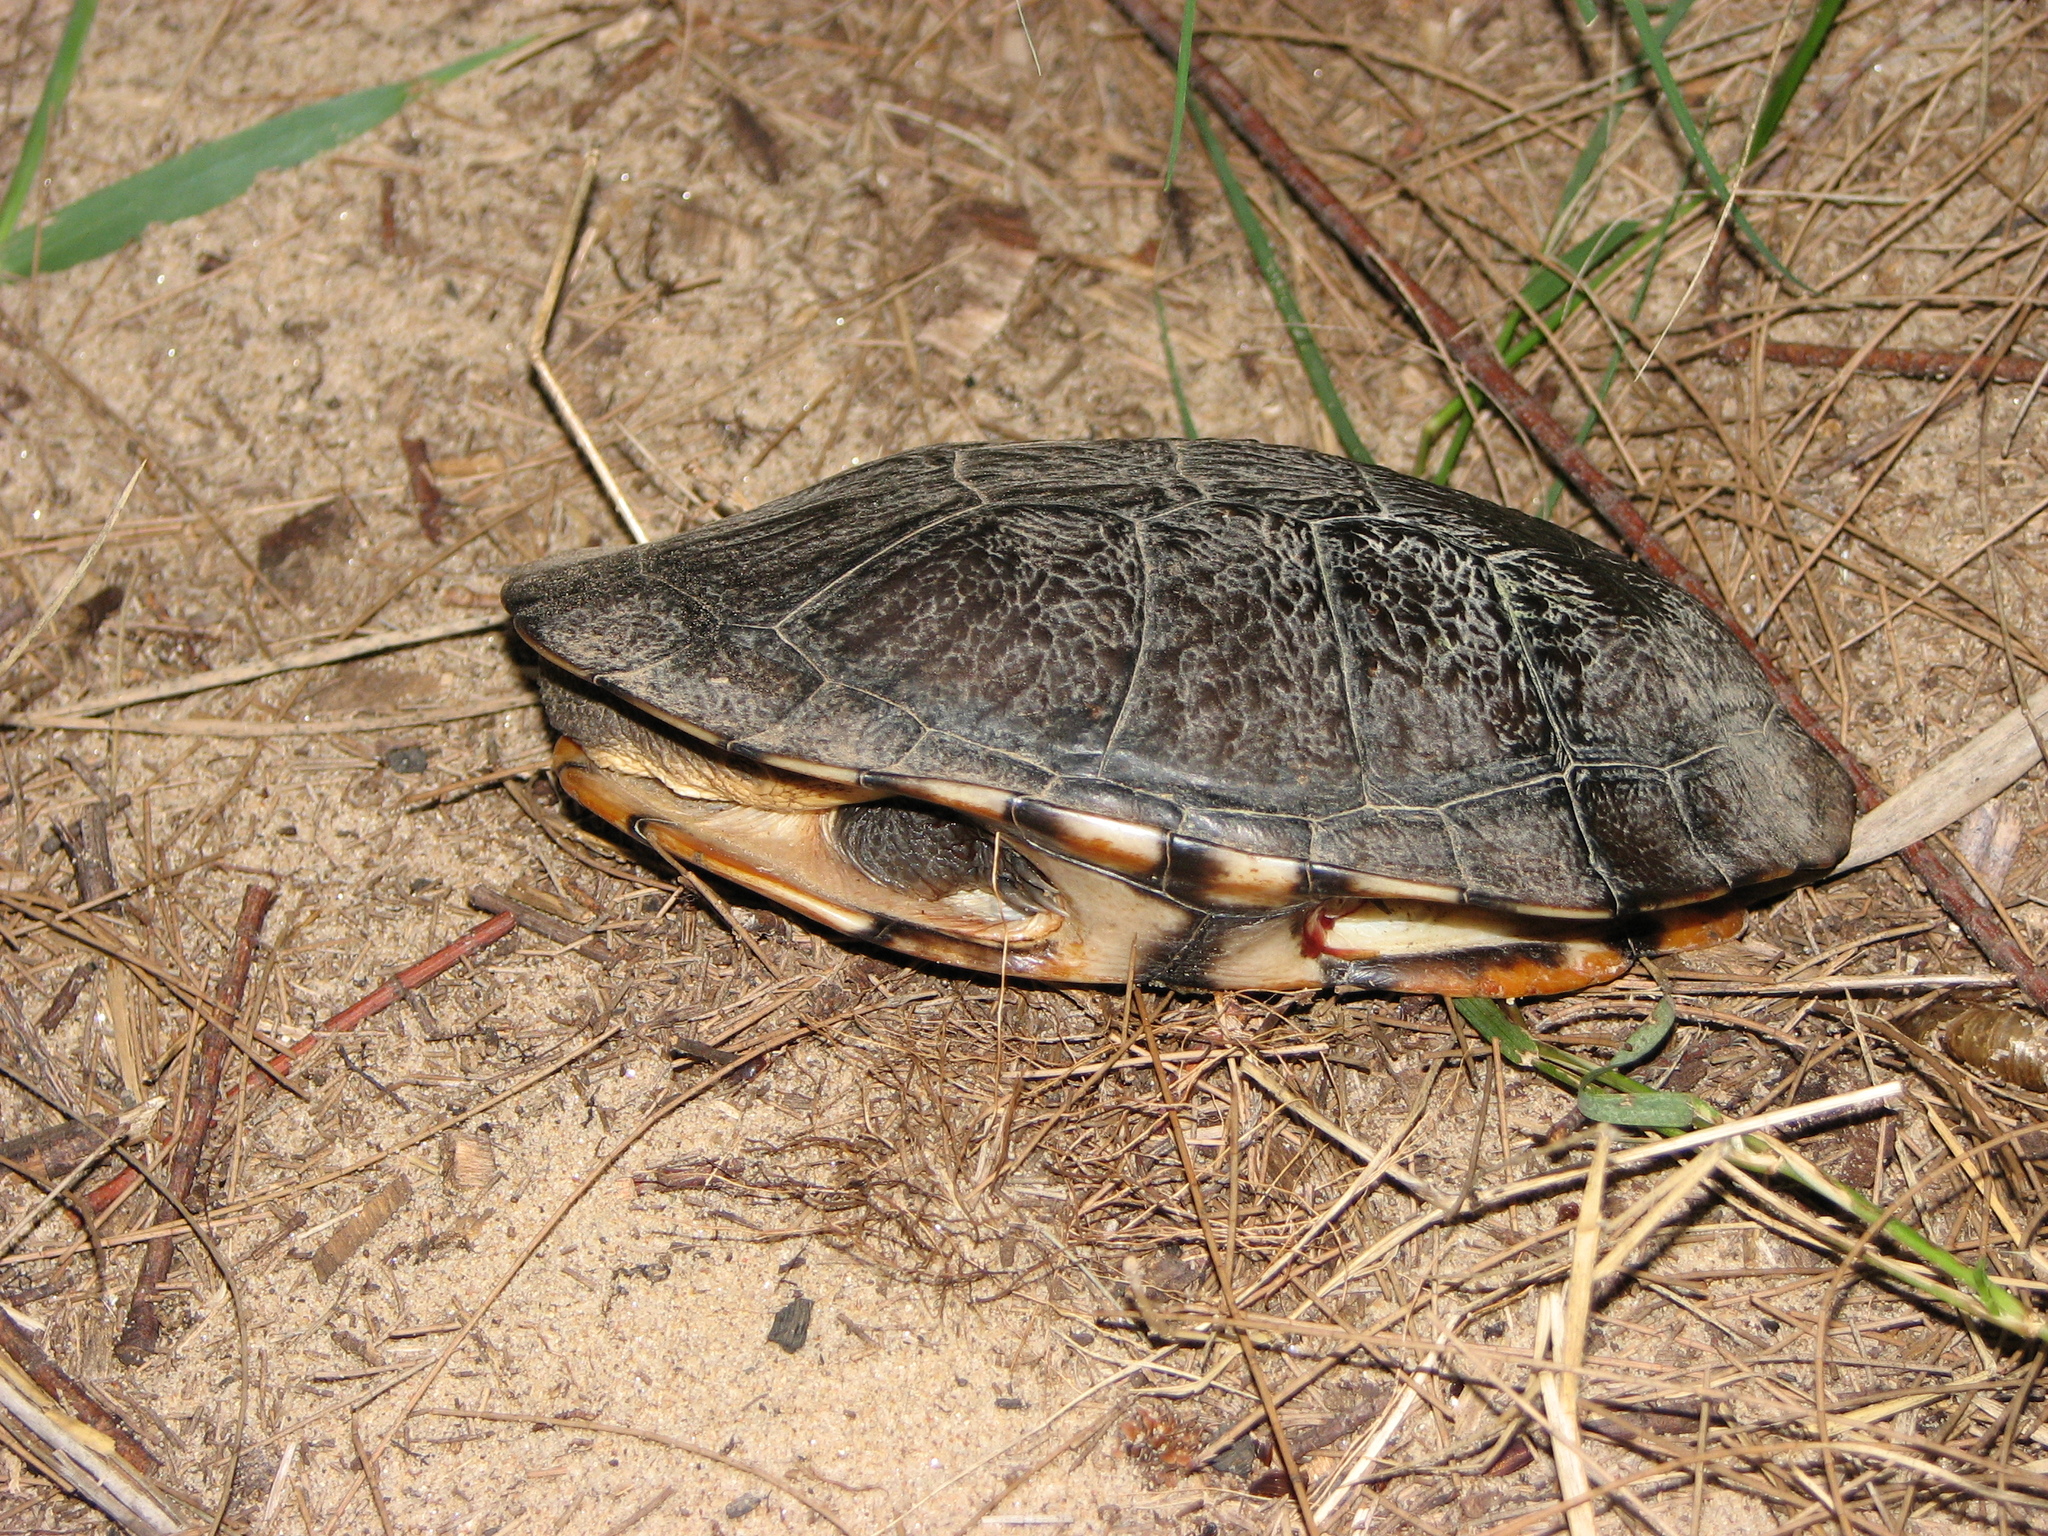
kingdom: Animalia
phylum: Chordata
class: Testudines
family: Chelidae
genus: Chelodina
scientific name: Chelodina longicollis
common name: Eastern snake-necked turtle
